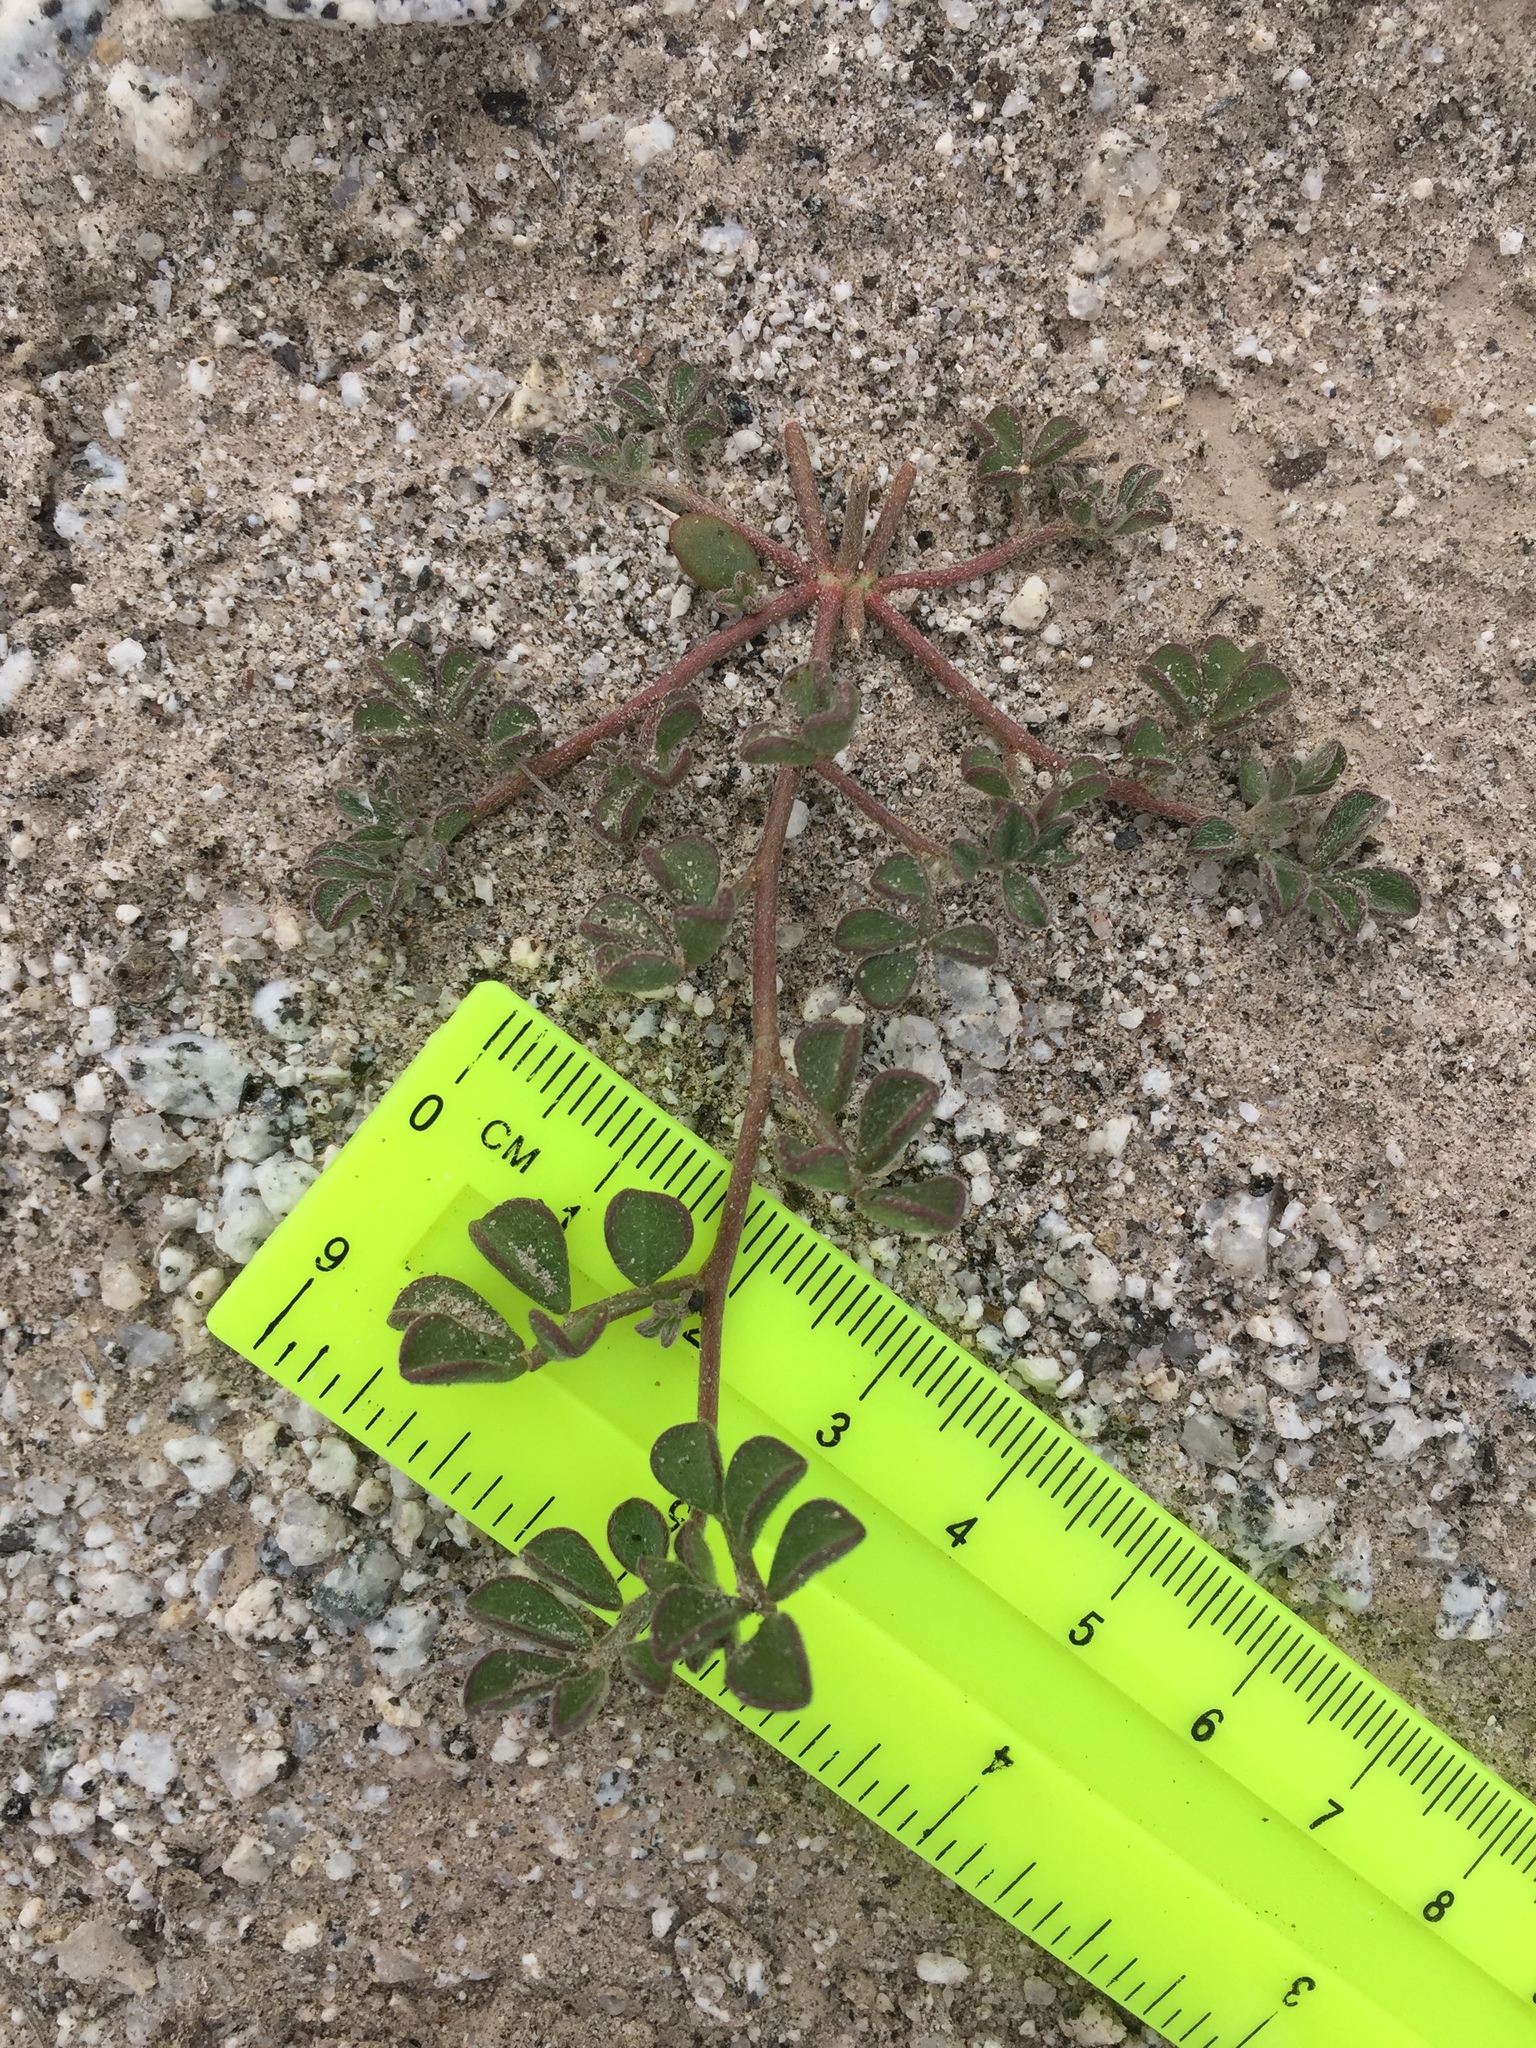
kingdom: Plantae
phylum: Tracheophyta
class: Magnoliopsida
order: Fabales
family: Fabaceae
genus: Acmispon
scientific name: Acmispon strigosus
